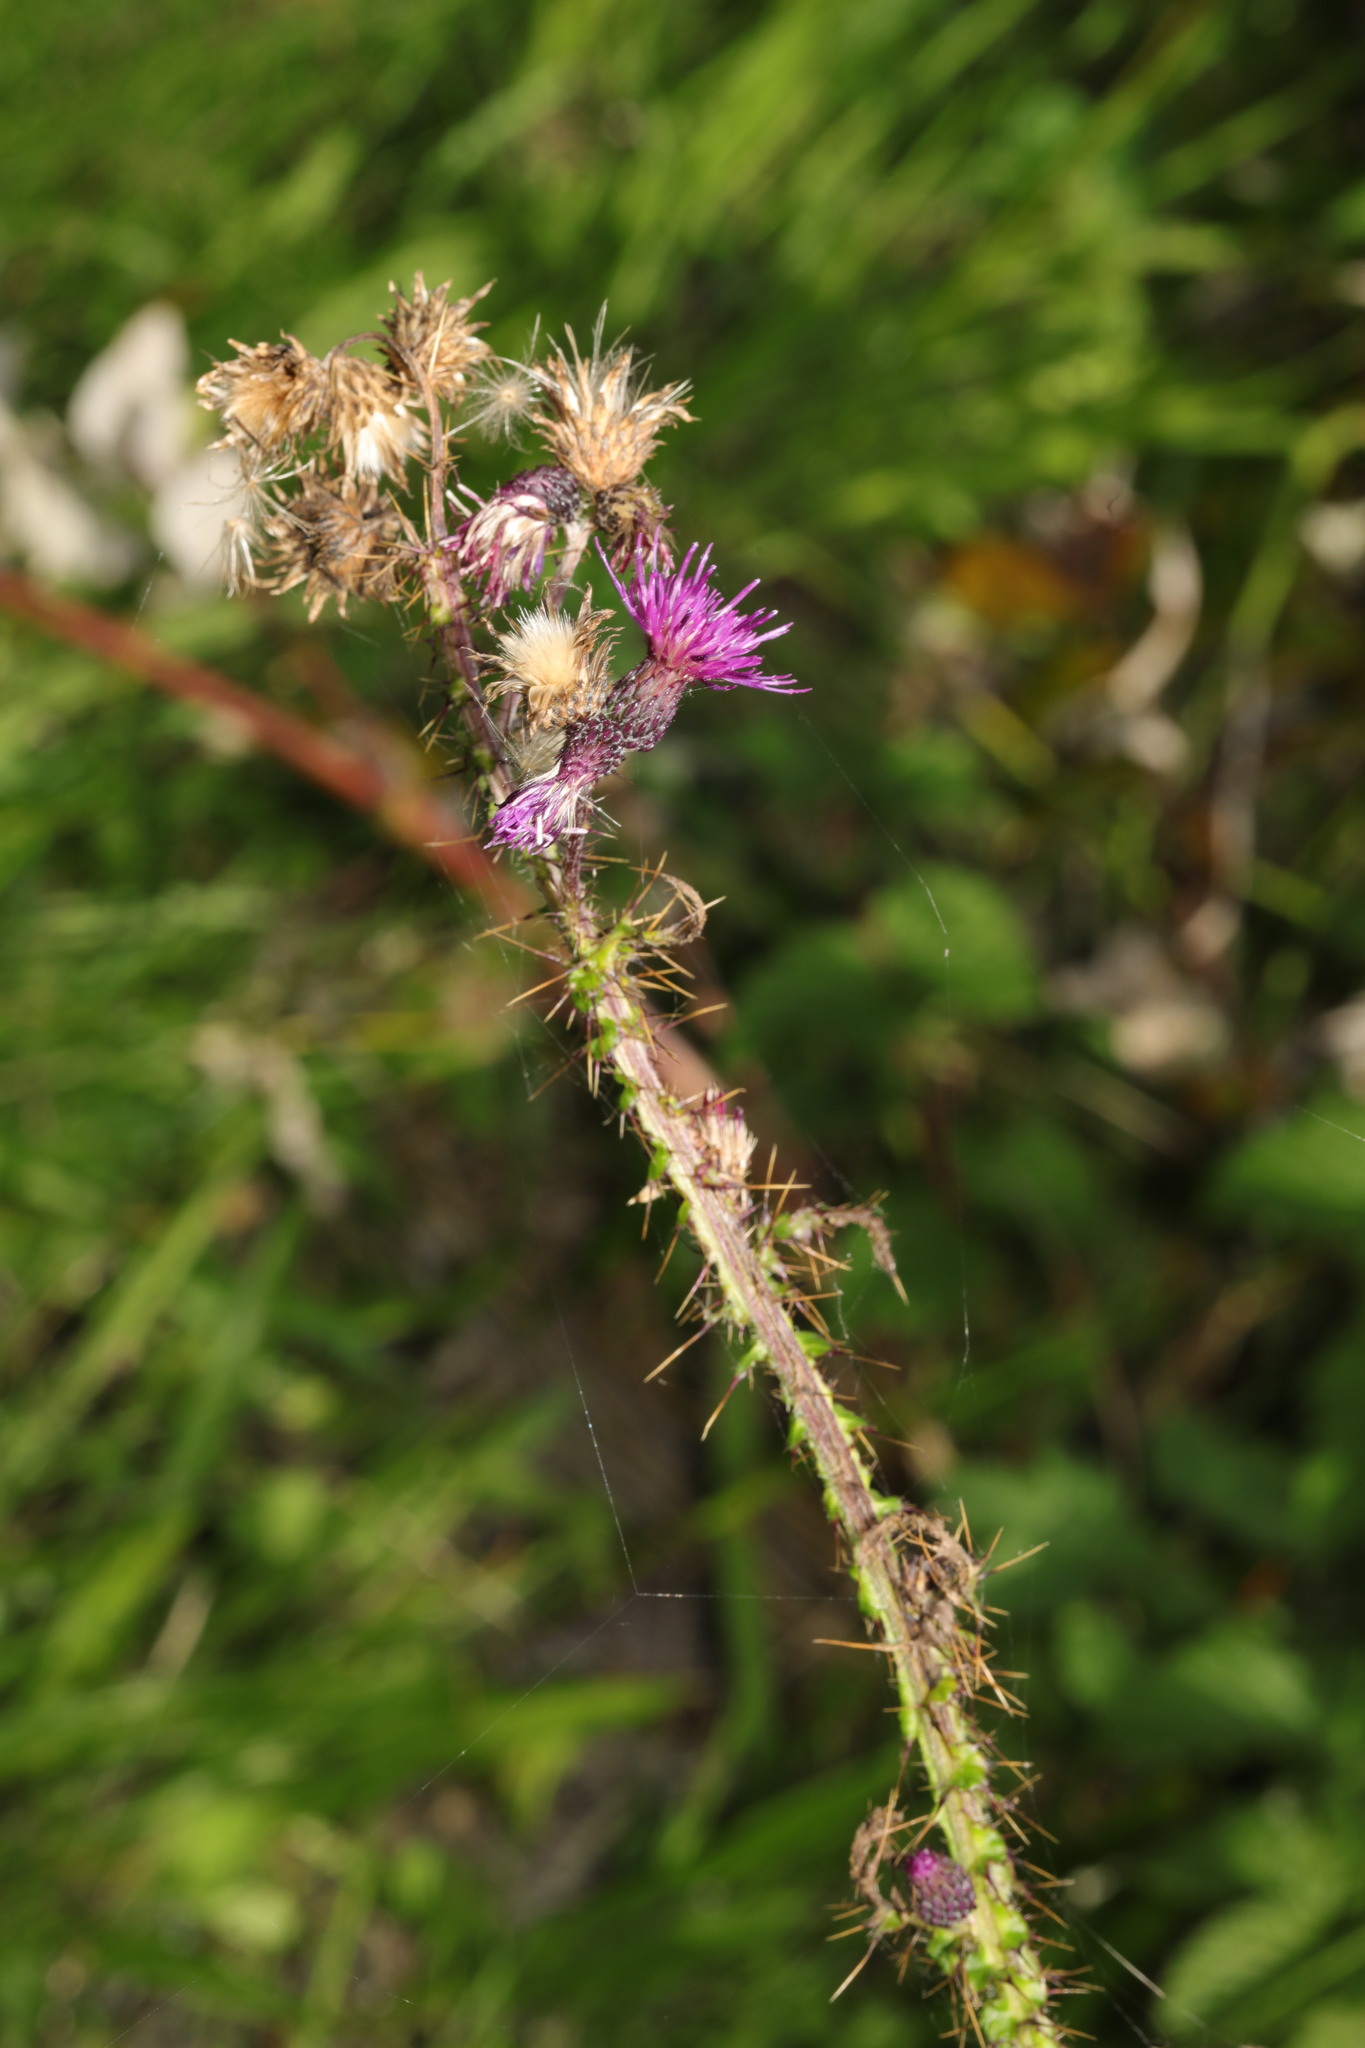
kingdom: Plantae
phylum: Tracheophyta
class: Magnoliopsida
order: Asterales
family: Asteraceae
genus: Cirsium
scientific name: Cirsium palustre
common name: Marsh thistle
